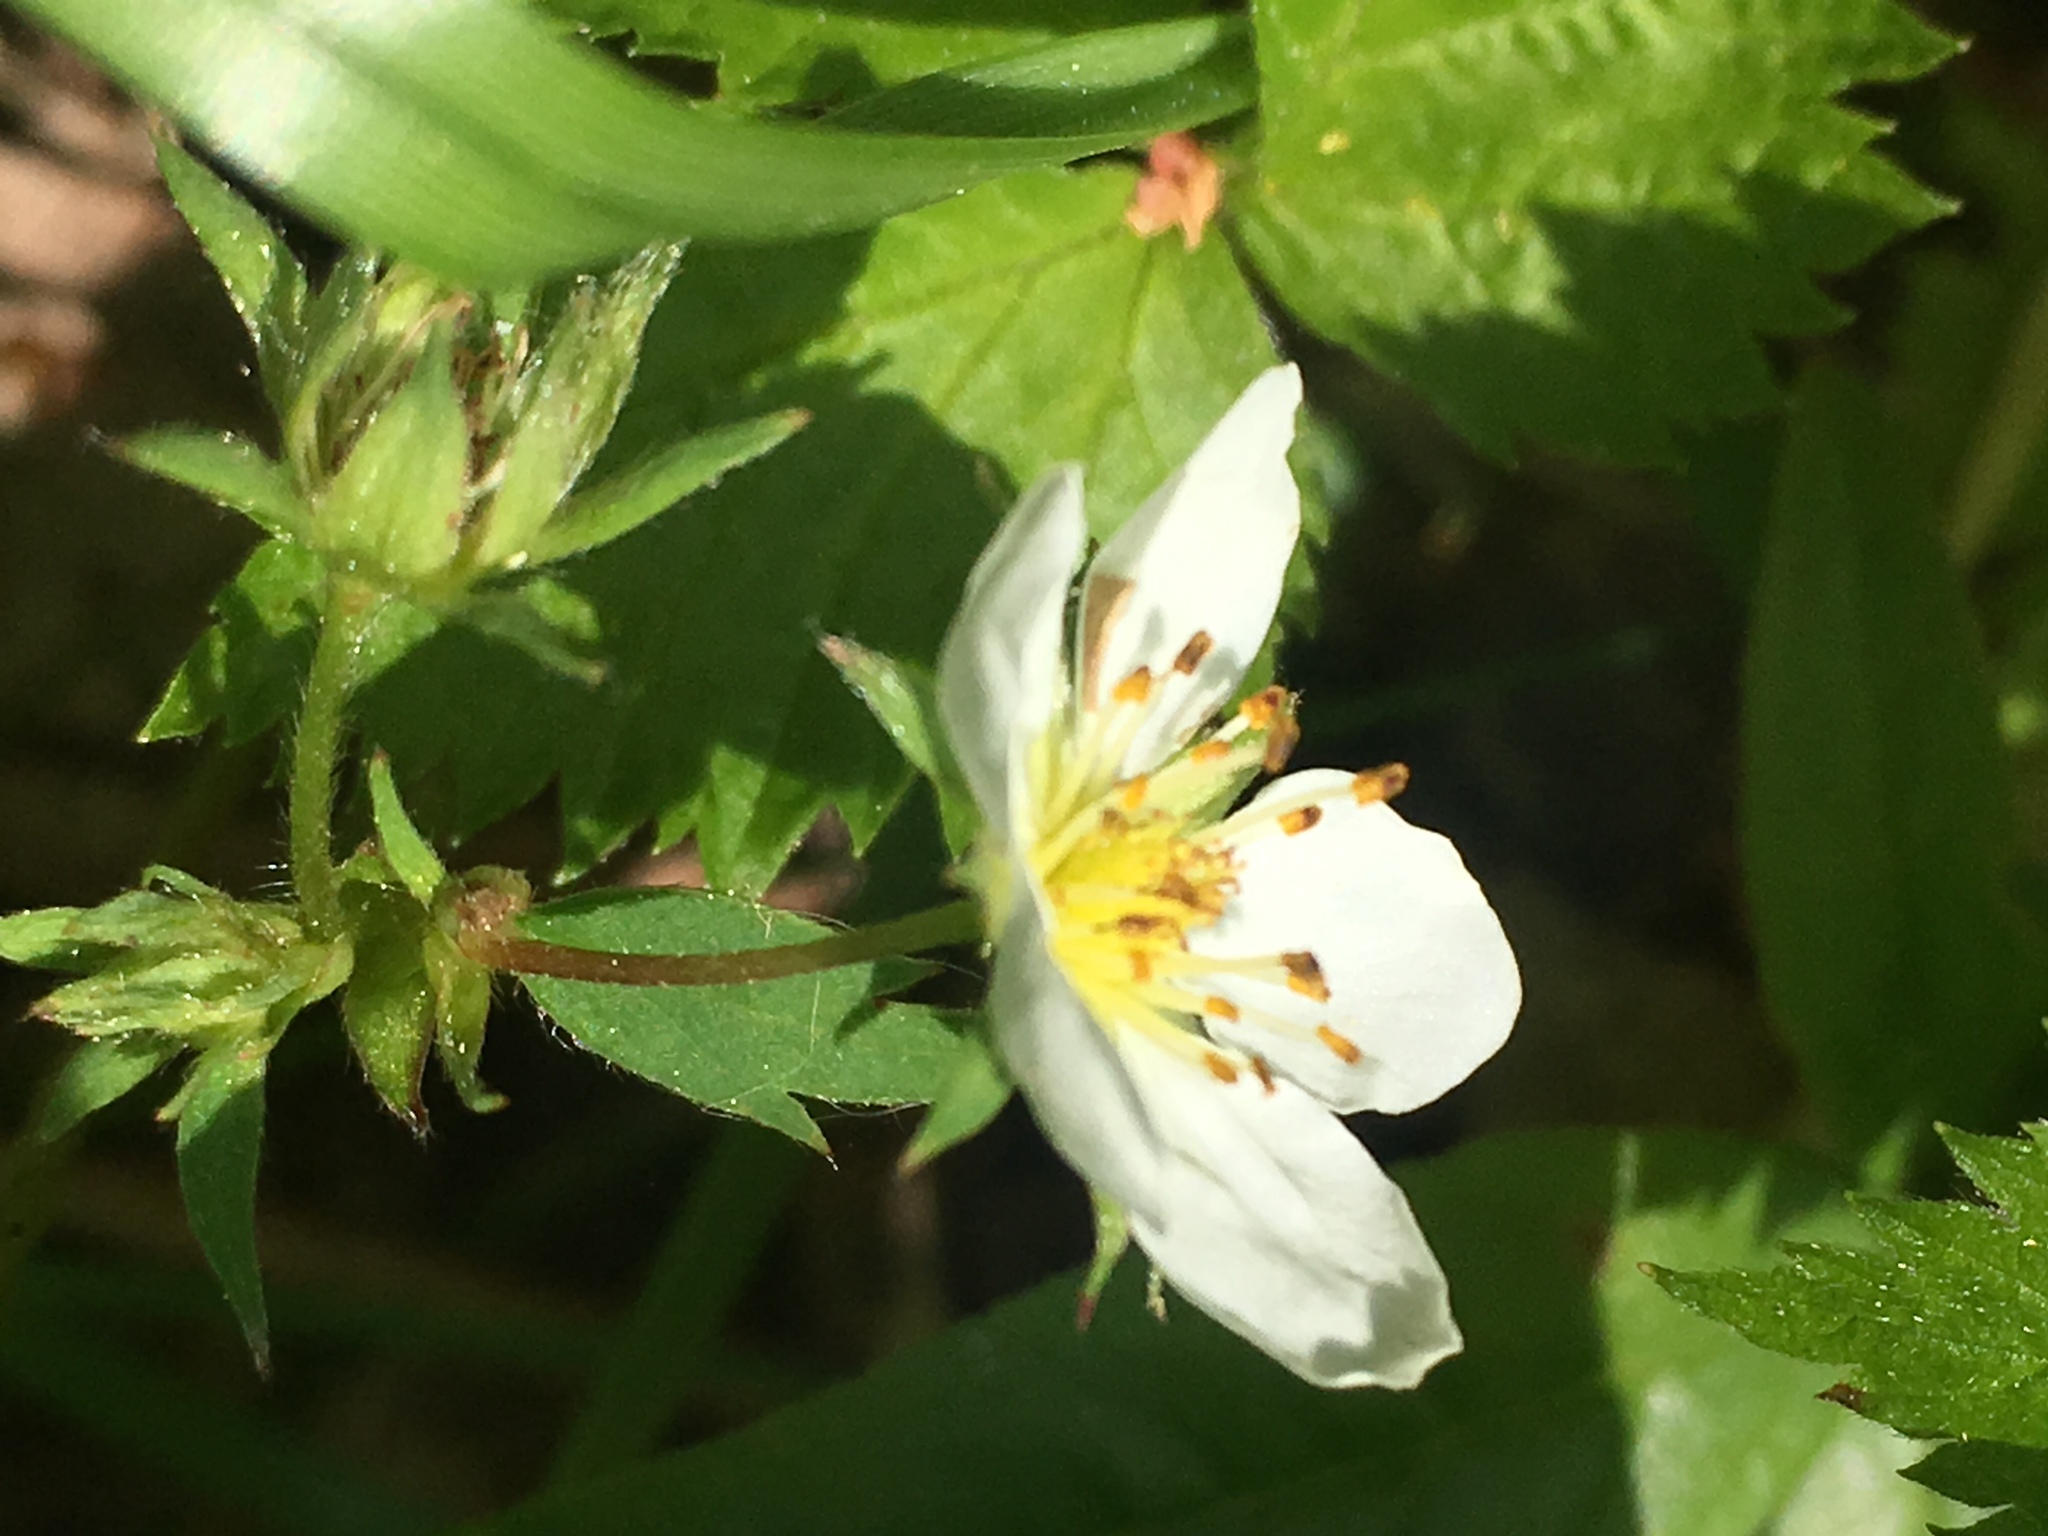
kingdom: Plantae
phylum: Tracheophyta
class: Magnoliopsida
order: Rosales
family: Rosaceae
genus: Fragaria
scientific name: Fragaria virginiana
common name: Thickleaved wild strawberry
